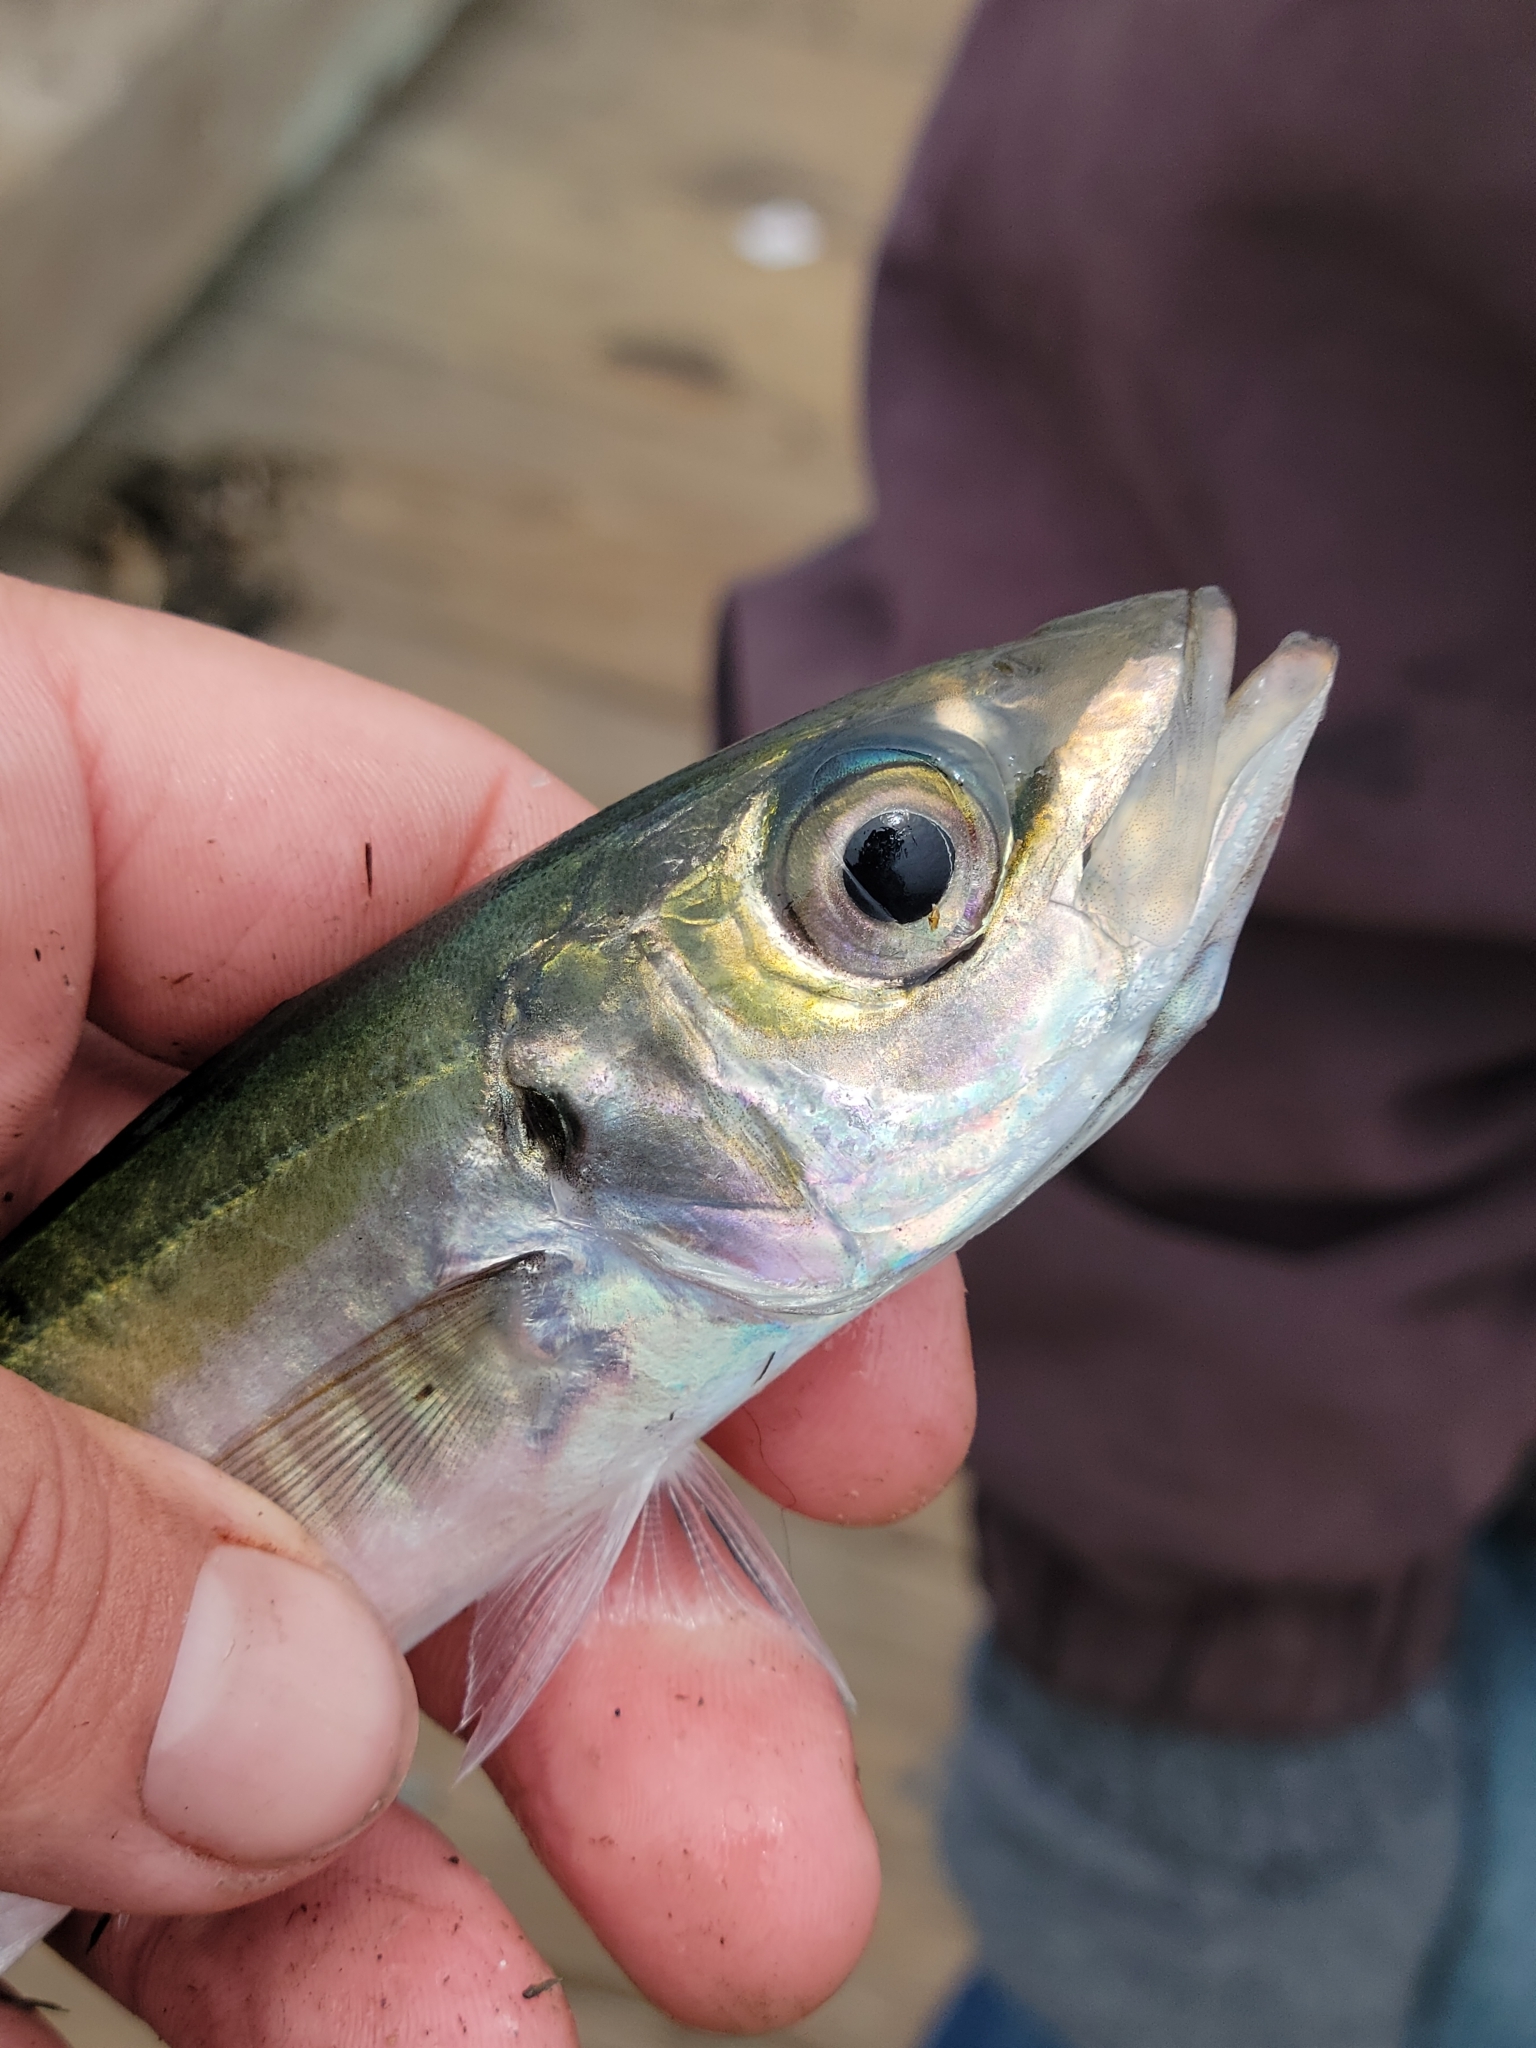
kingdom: Animalia
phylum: Chordata
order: Perciformes
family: Carangidae
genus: Trachurus
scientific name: Trachurus symmetricus
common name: Jack mackerel
